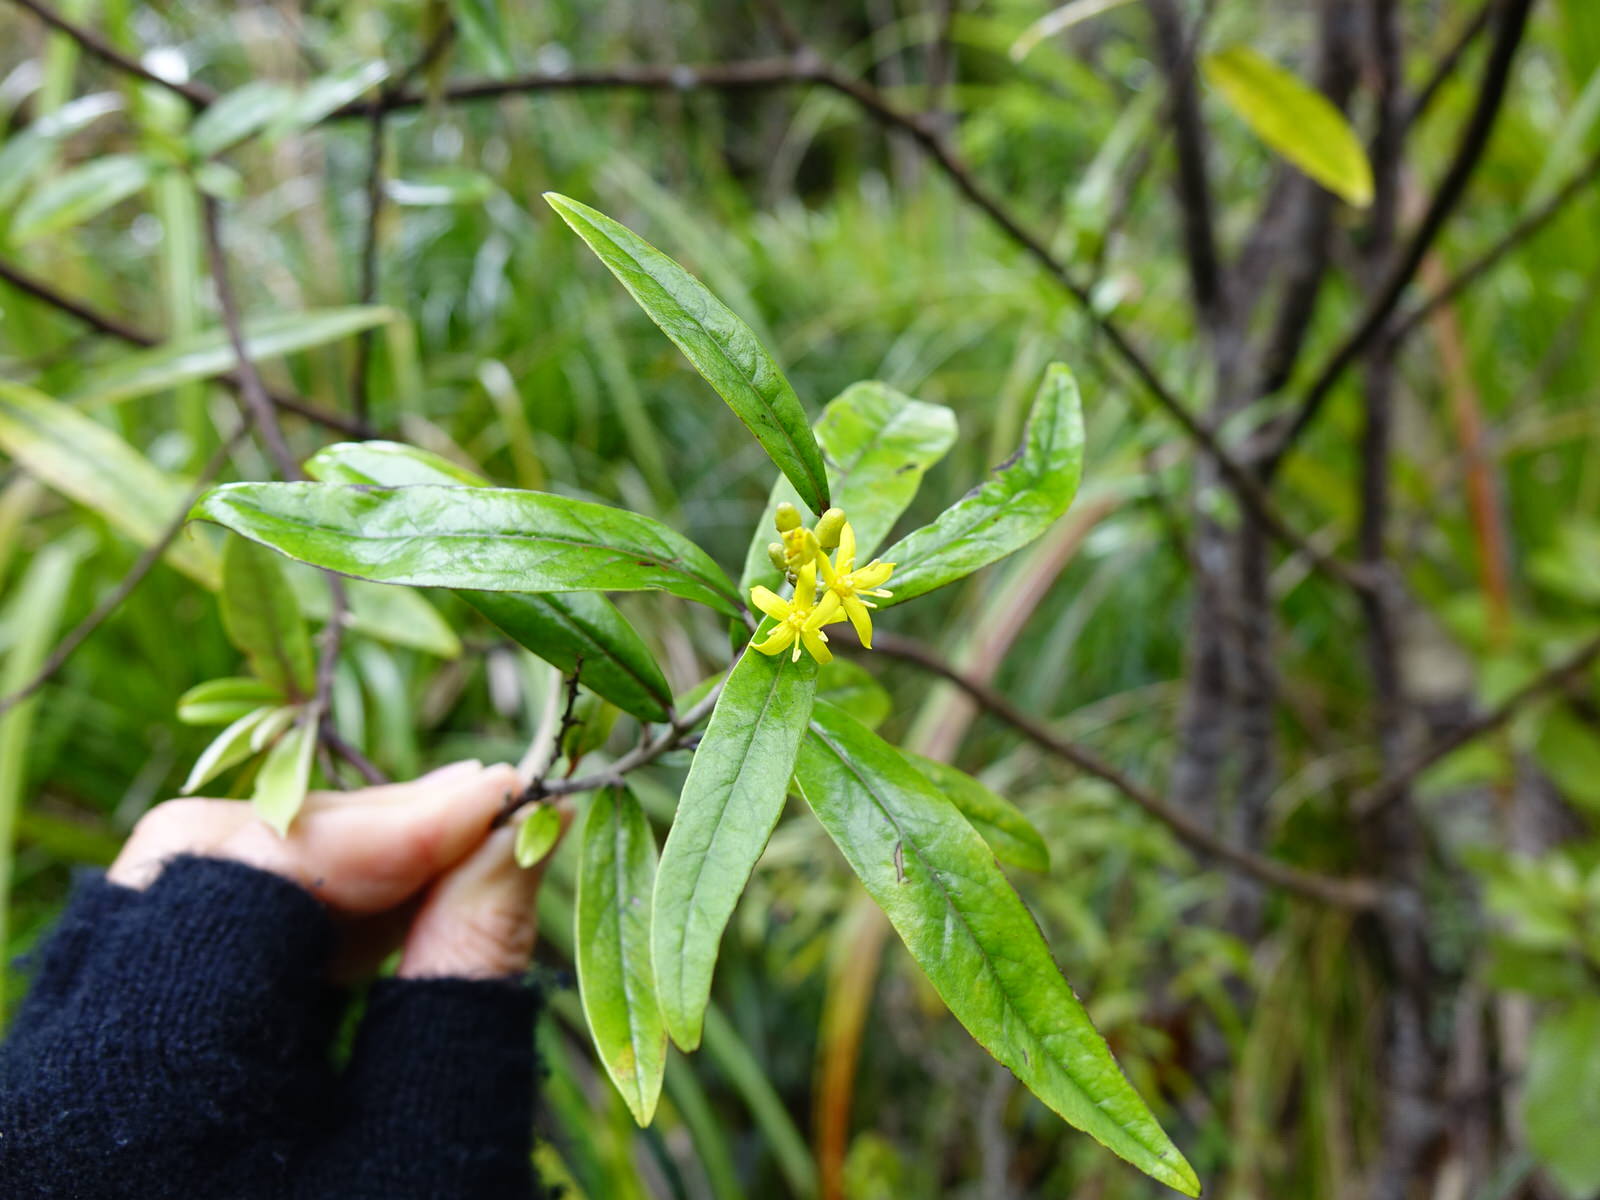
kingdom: Plantae
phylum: Tracheophyta
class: Magnoliopsida
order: Asterales
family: Argophyllaceae
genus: Corokia
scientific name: Corokia buddleioides
